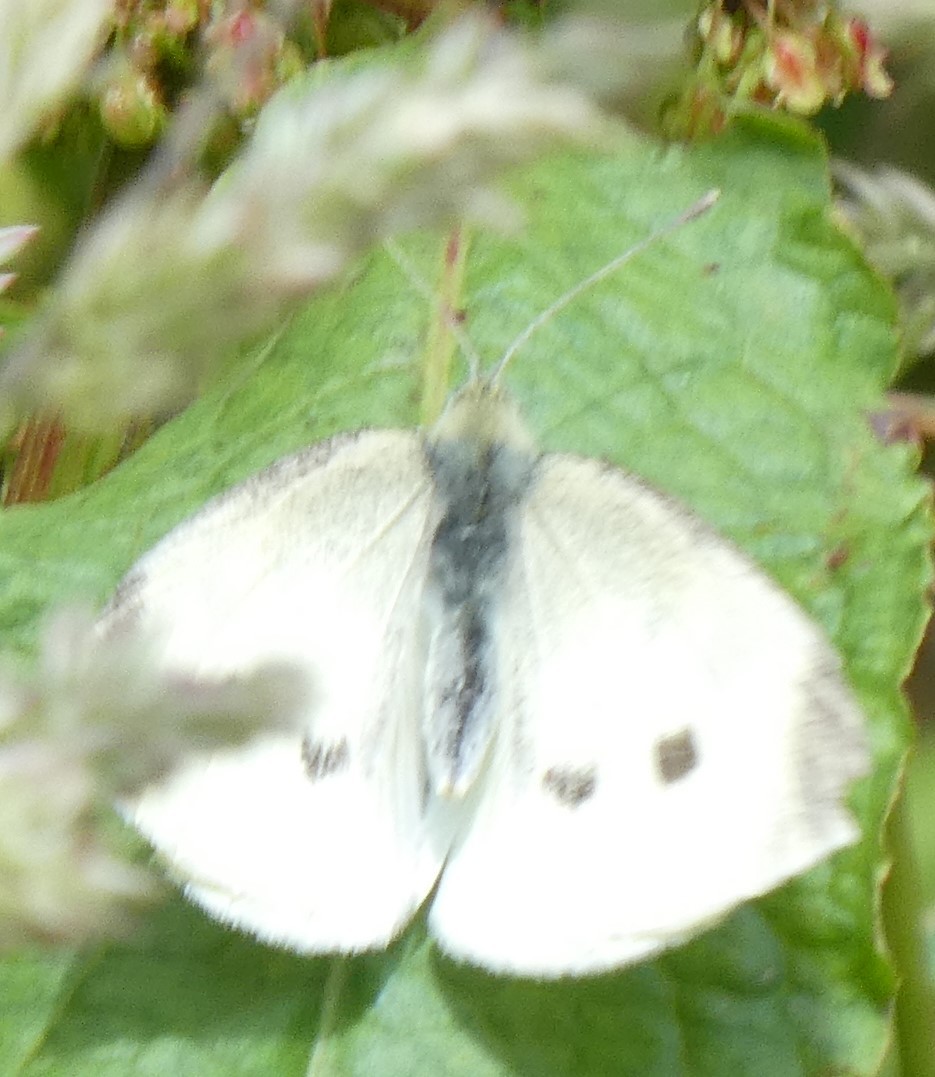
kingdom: Animalia
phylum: Arthropoda
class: Insecta
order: Lepidoptera
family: Pieridae
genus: Pieris
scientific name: Pieris rapae
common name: Small white
